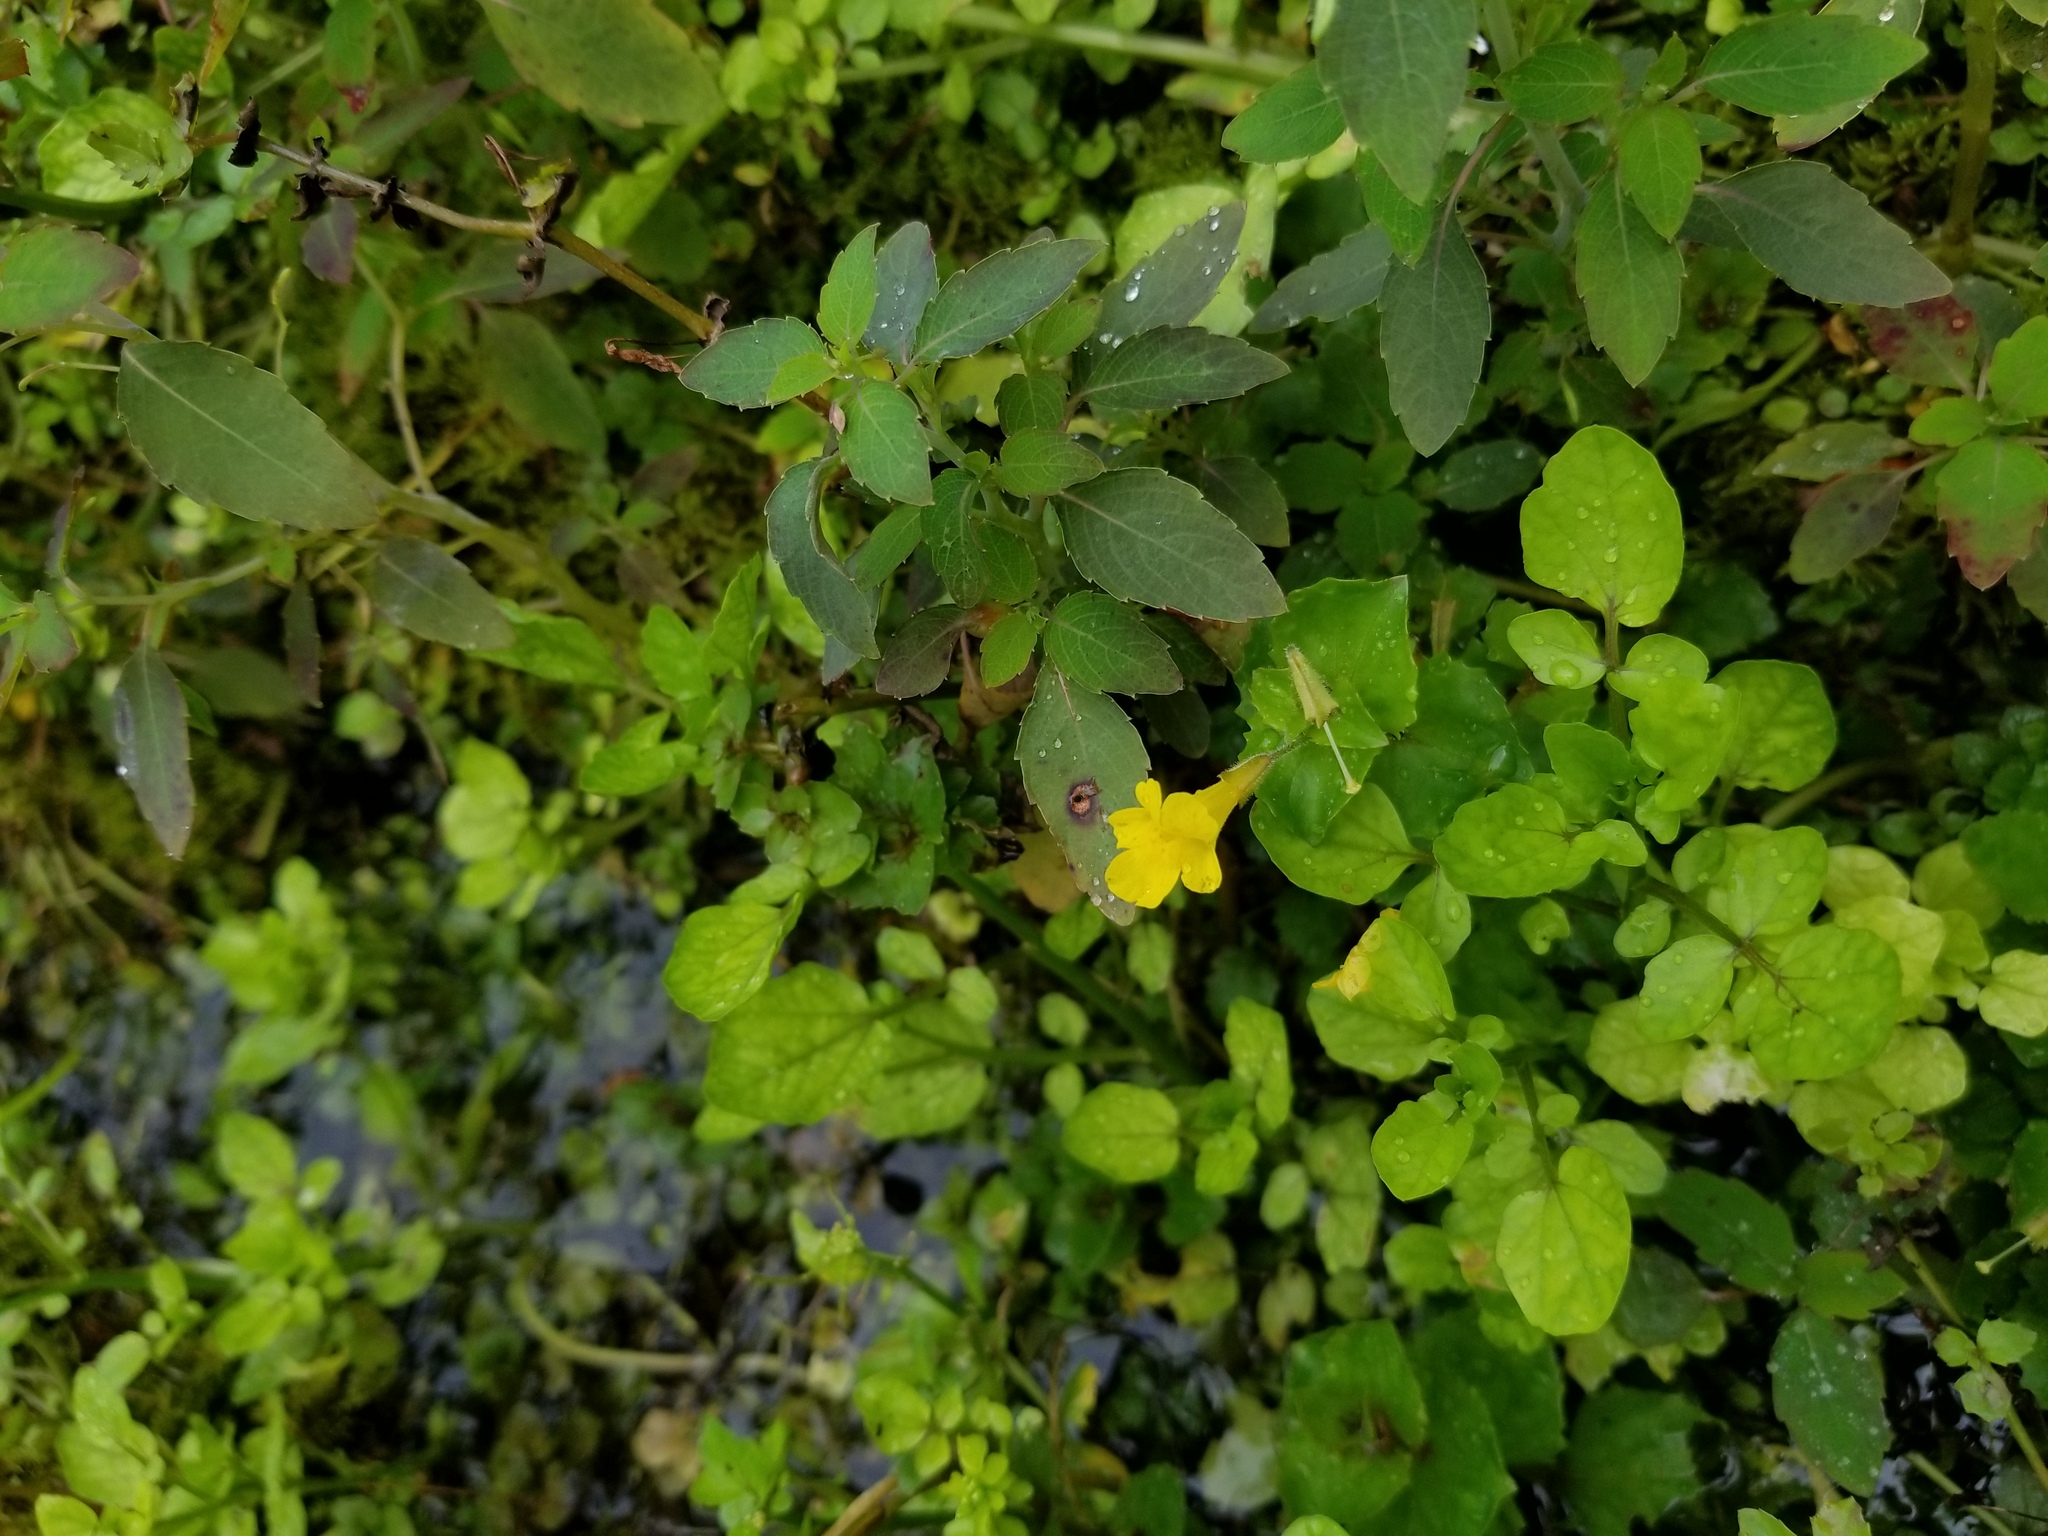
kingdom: Plantae
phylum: Tracheophyta
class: Magnoliopsida
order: Lamiales
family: Phrymaceae
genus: Erythranthe
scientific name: Erythranthe michiganensis
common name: Michigan monkey-flower
